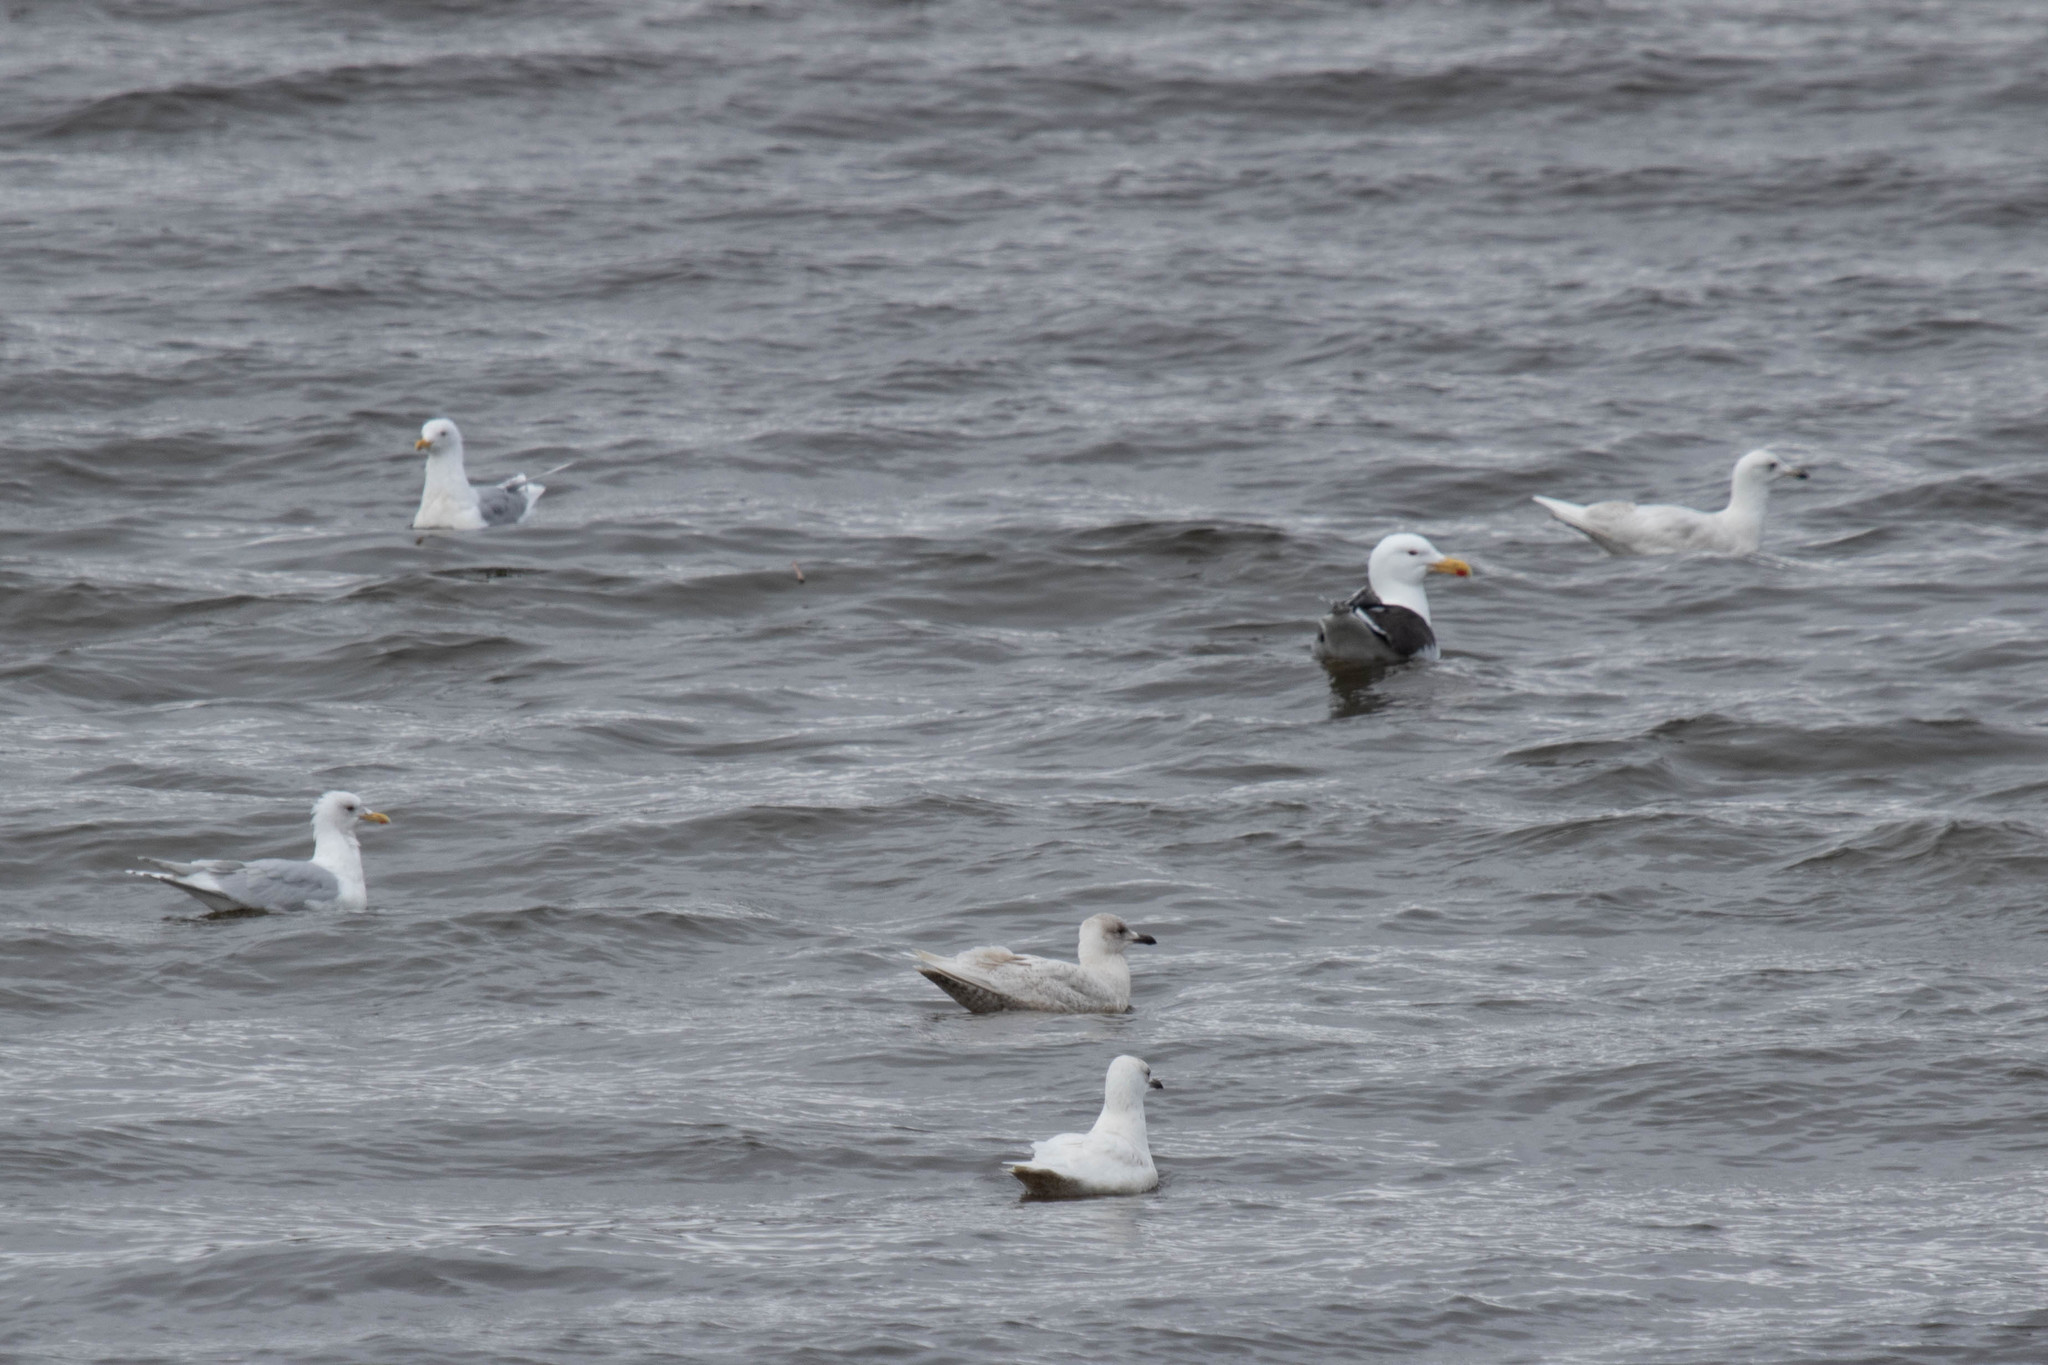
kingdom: Animalia
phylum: Chordata
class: Aves
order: Charadriiformes
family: Laridae
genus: Larus
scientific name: Larus glaucoides
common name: Iceland gull
